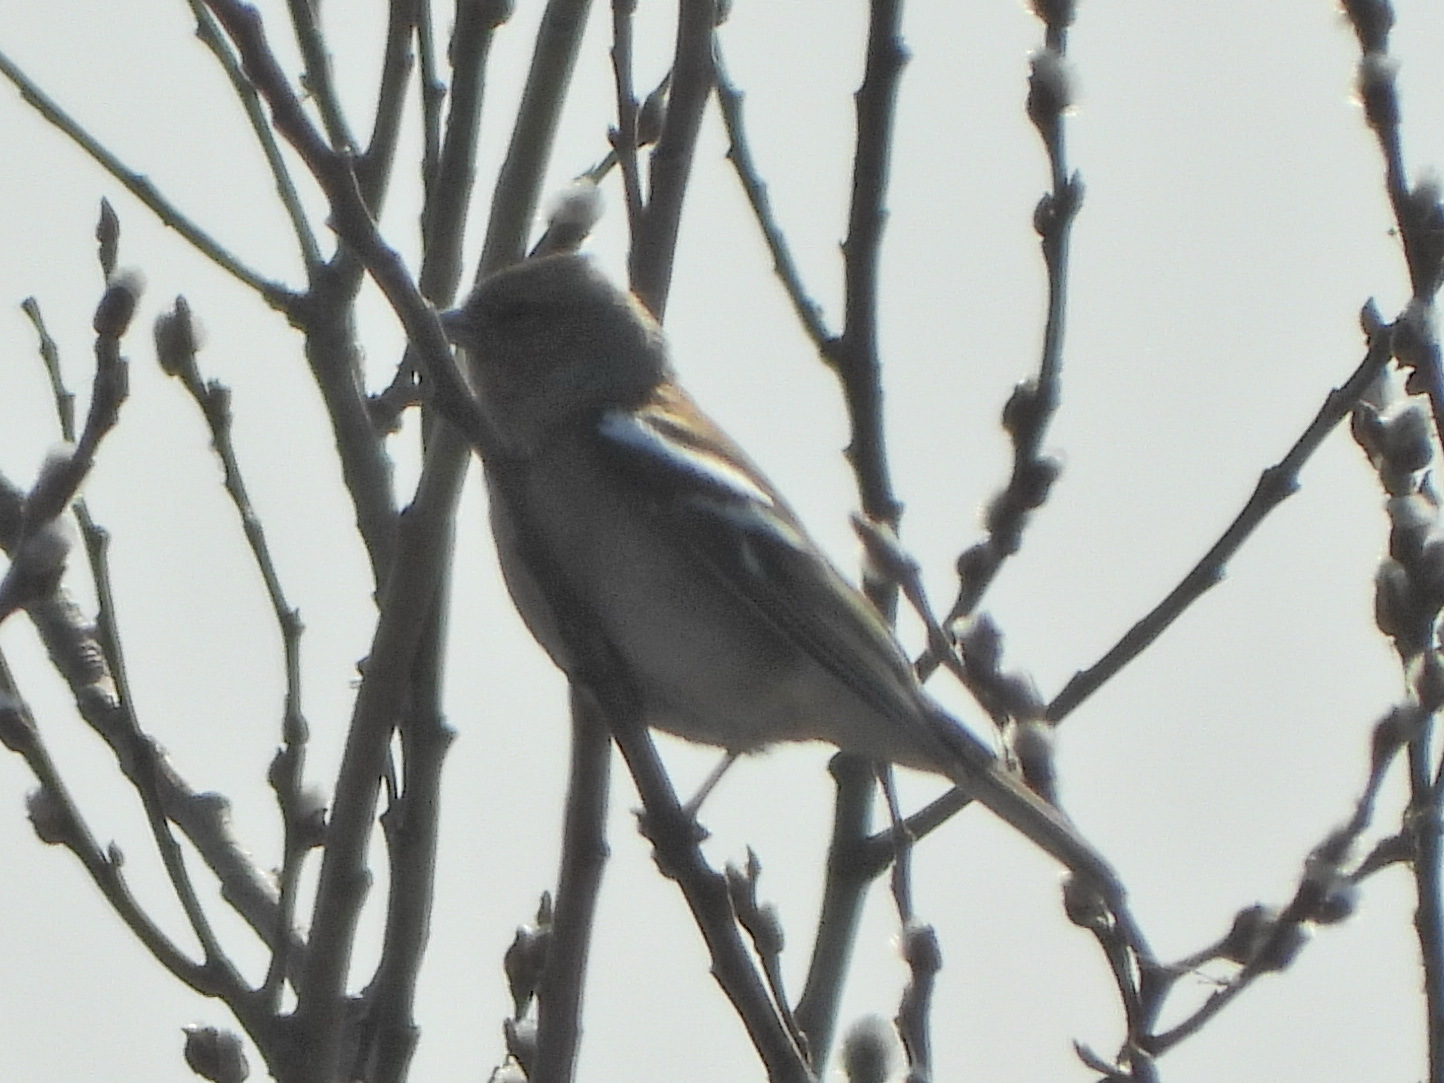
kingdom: Animalia
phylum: Chordata
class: Aves
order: Passeriformes
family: Fringillidae
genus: Fringilla
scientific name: Fringilla coelebs
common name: Common chaffinch
